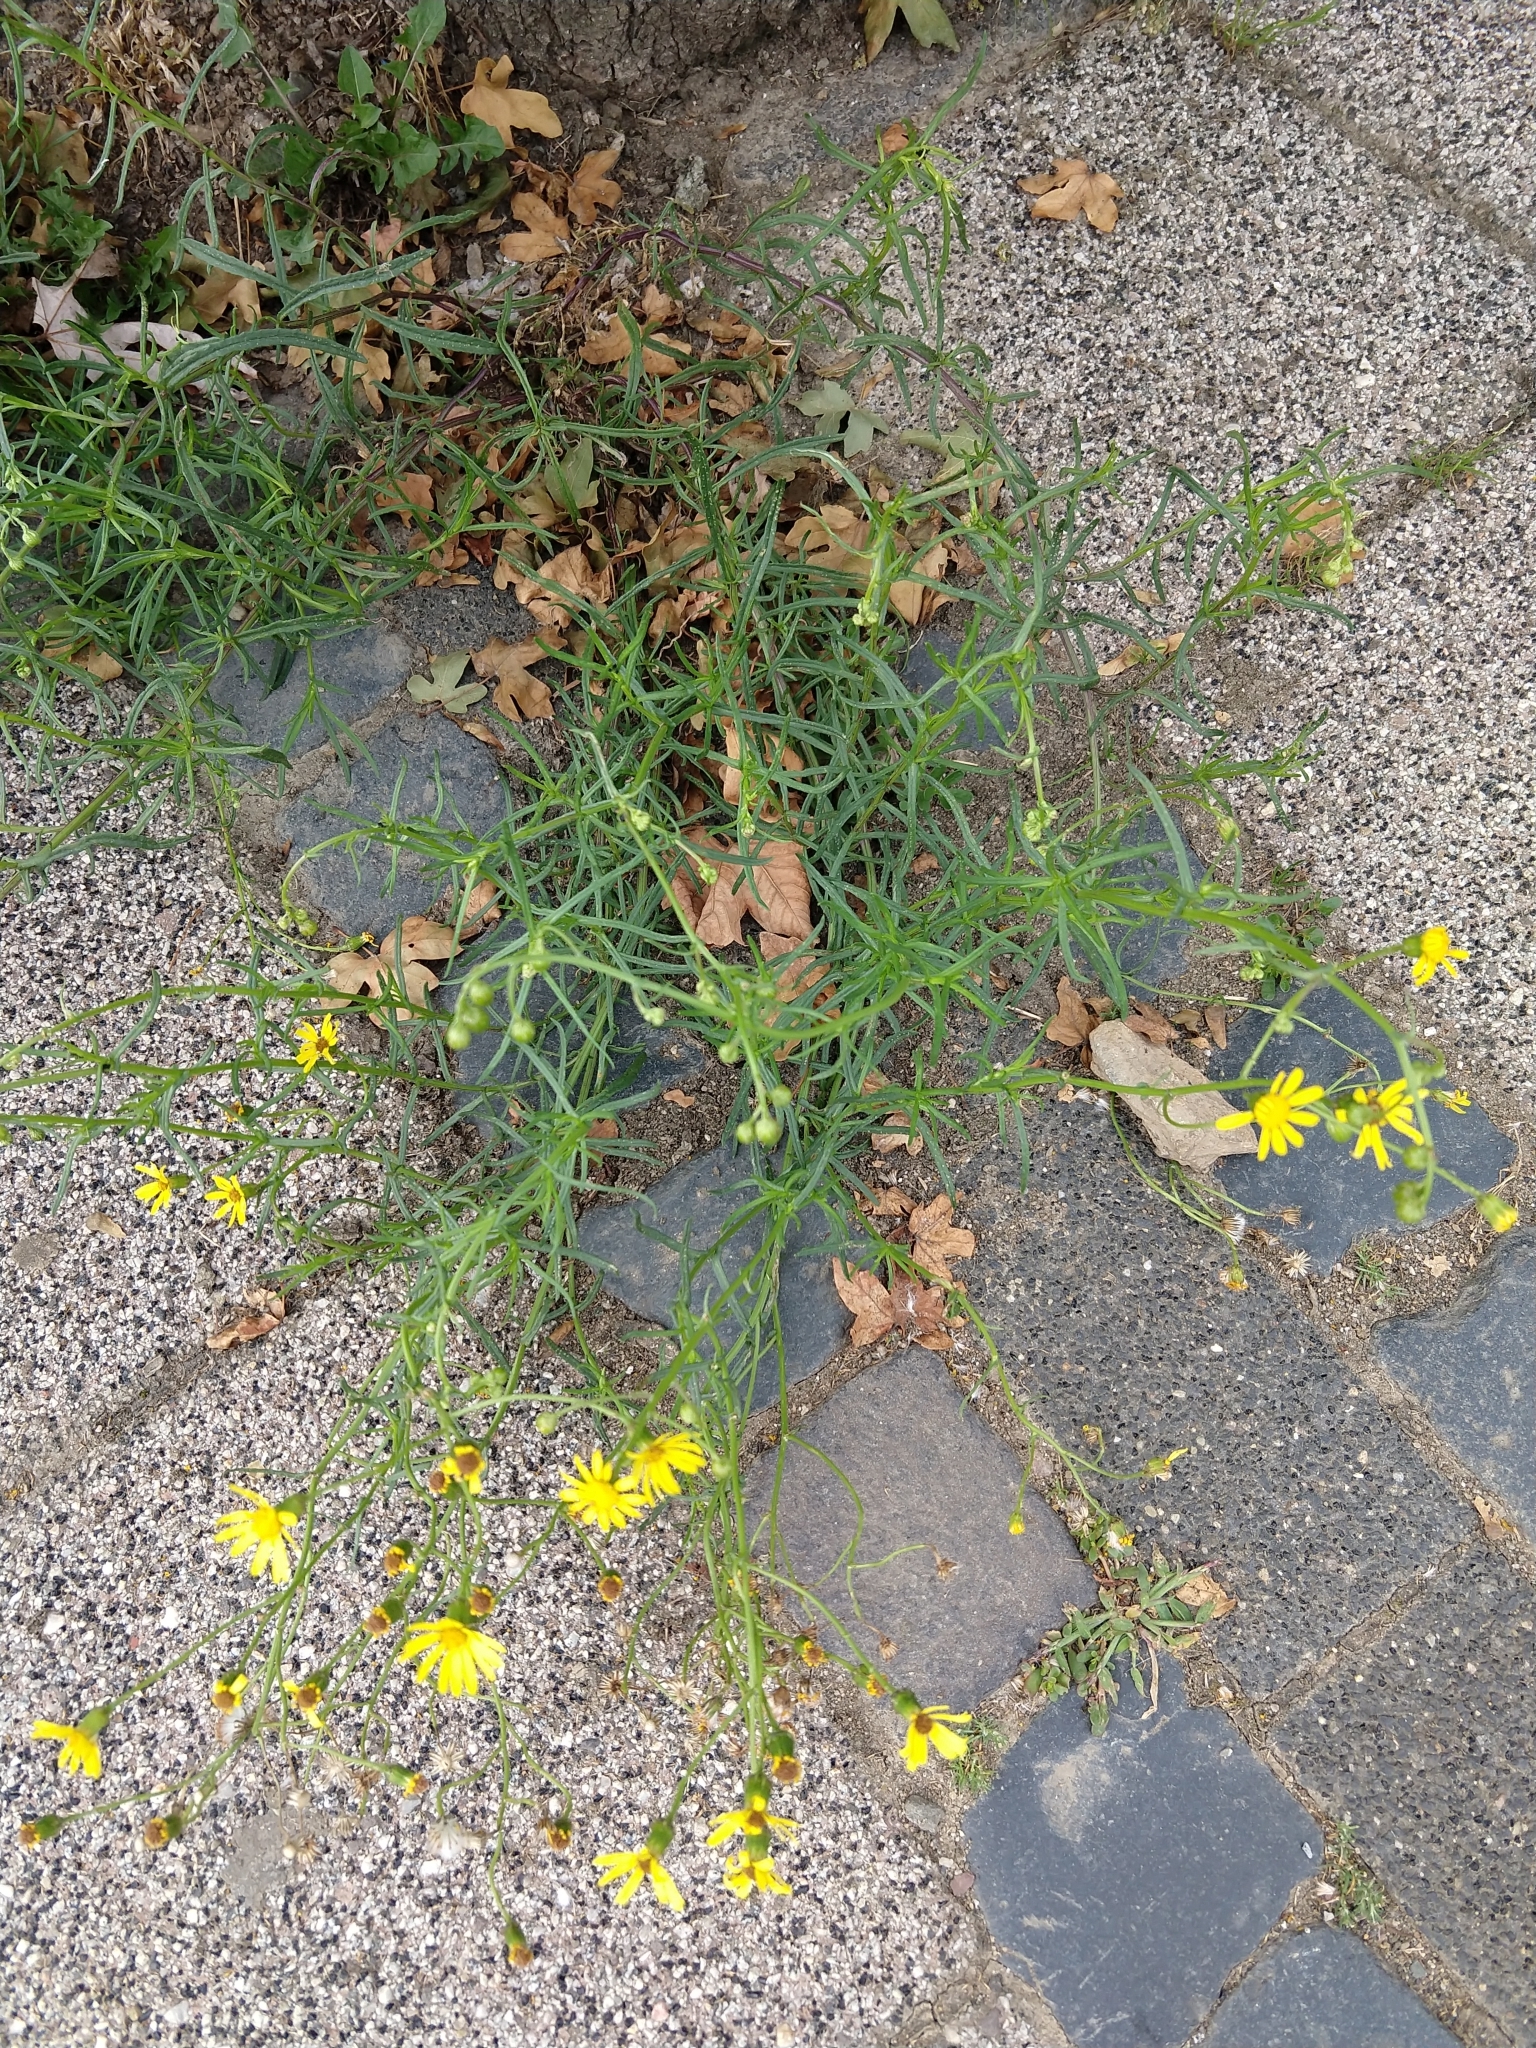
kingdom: Plantae
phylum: Tracheophyta
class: Magnoliopsida
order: Asterales
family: Asteraceae
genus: Senecio
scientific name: Senecio inaequidens
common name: Narrow-leaved ragwort
